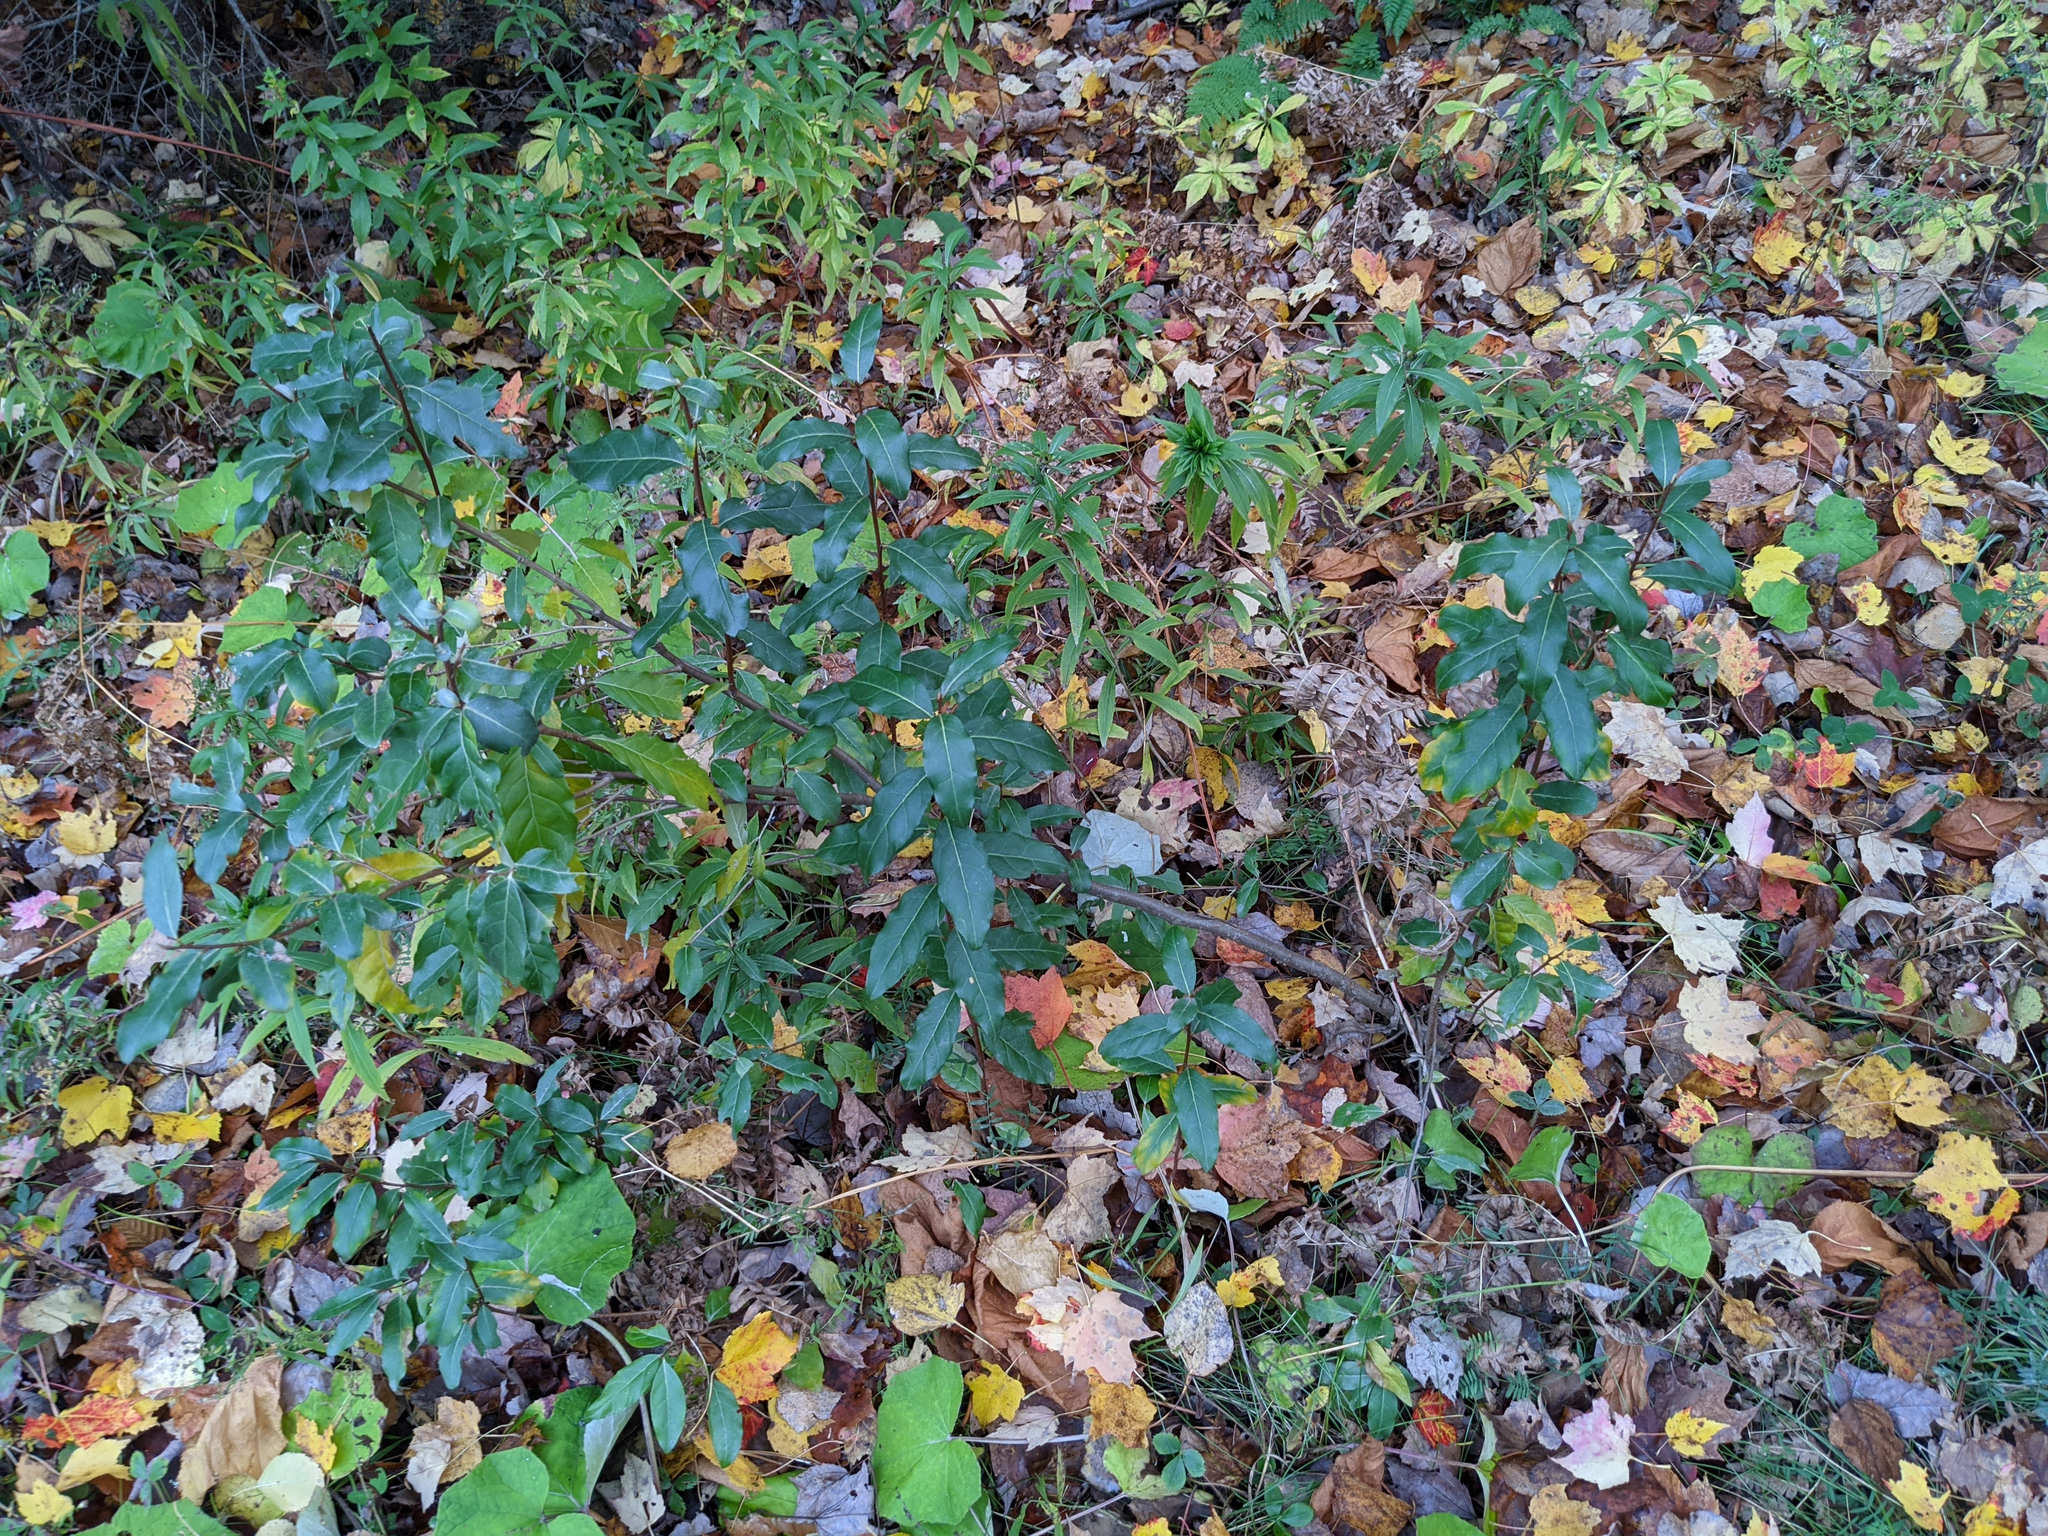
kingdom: Plantae
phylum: Tracheophyta
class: Magnoliopsida
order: Rosales
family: Elaeagnaceae
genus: Elaeagnus
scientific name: Elaeagnus umbellata
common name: Autumn olive
